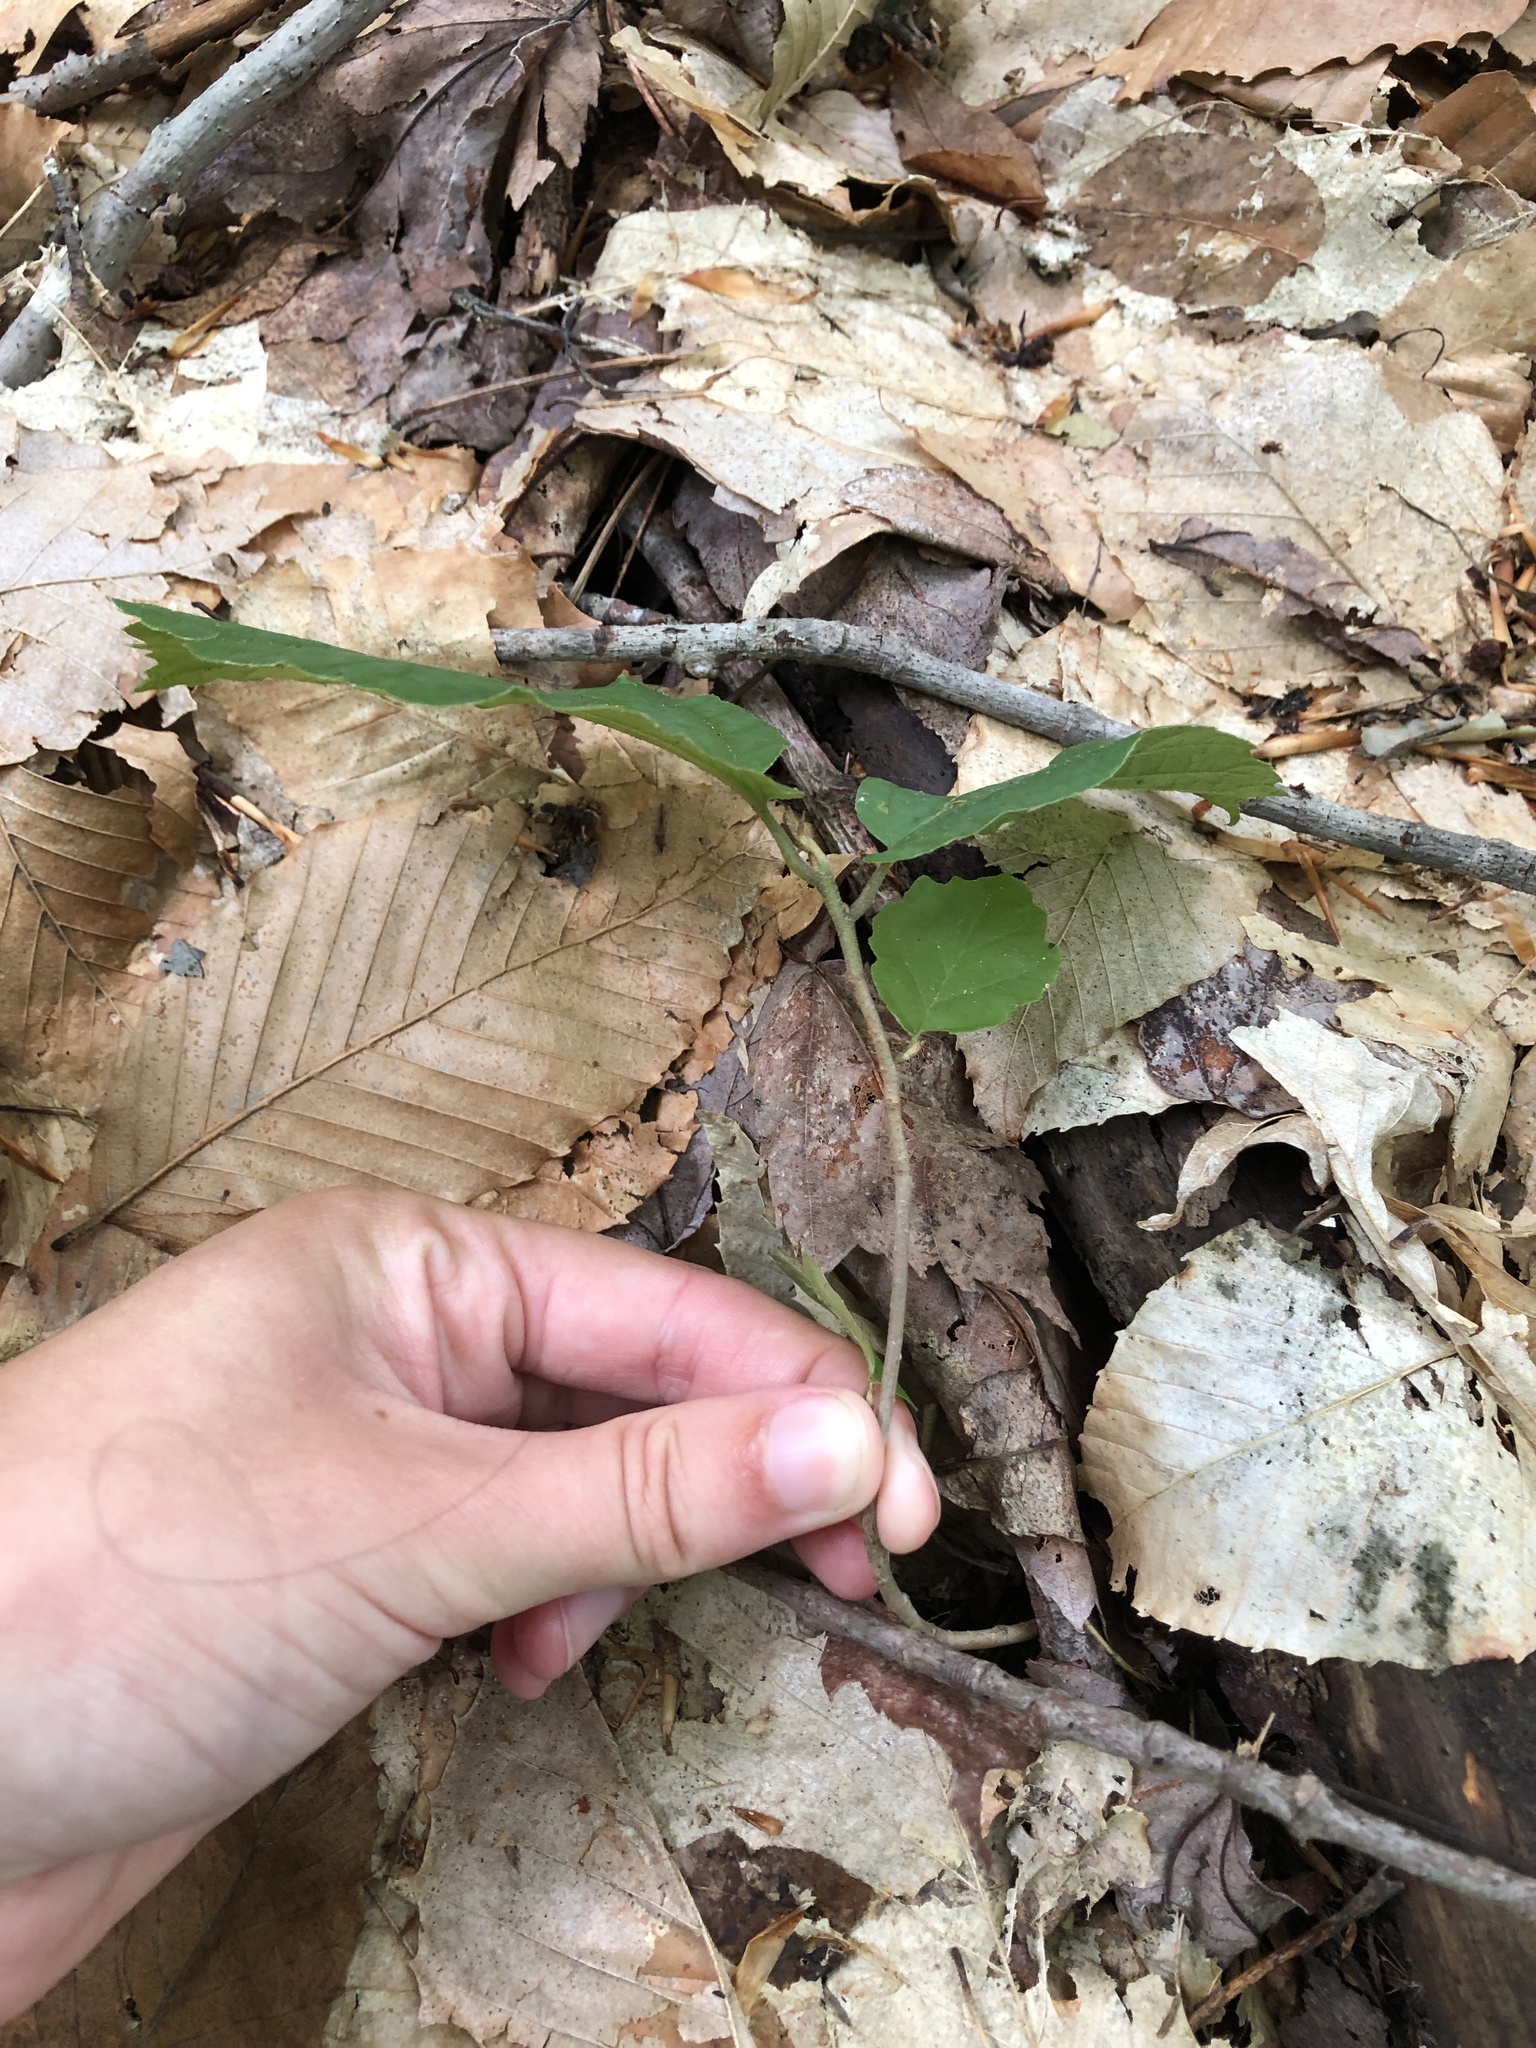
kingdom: Plantae
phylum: Tracheophyta
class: Magnoliopsida
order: Saxifragales
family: Hamamelidaceae
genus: Hamamelis
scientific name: Hamamelis virginiana
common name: Witch-hazel
